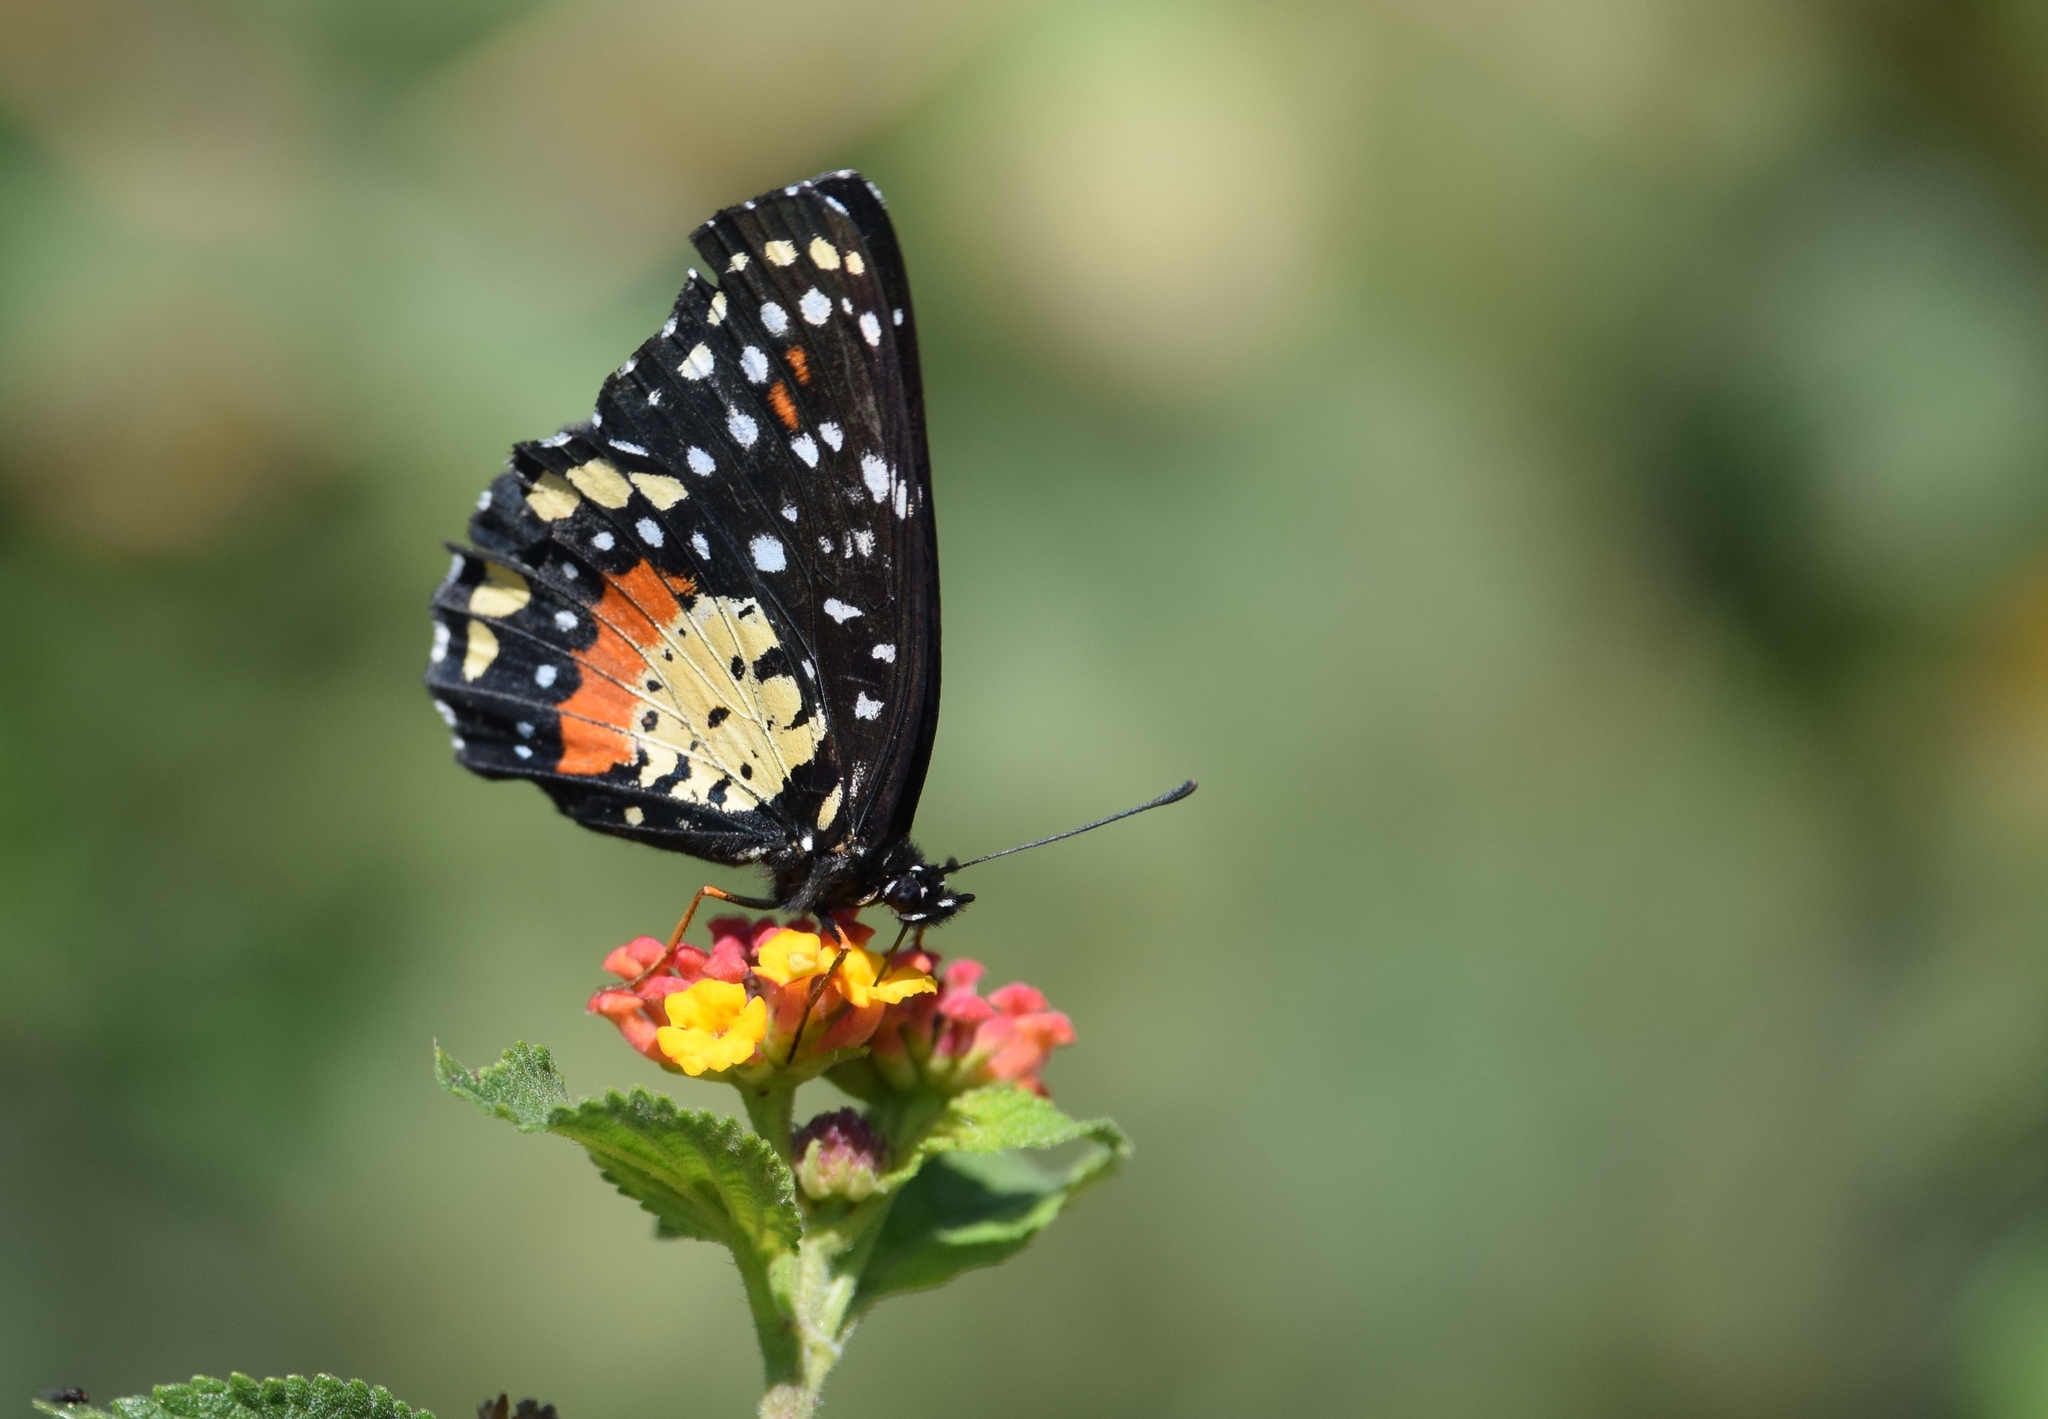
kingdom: Animalia
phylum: Arthropoda
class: Insecta
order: Lepidoptera
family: Nymphalidae
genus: Chlosyne
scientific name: Chlosyne janais
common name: Crimson patch
